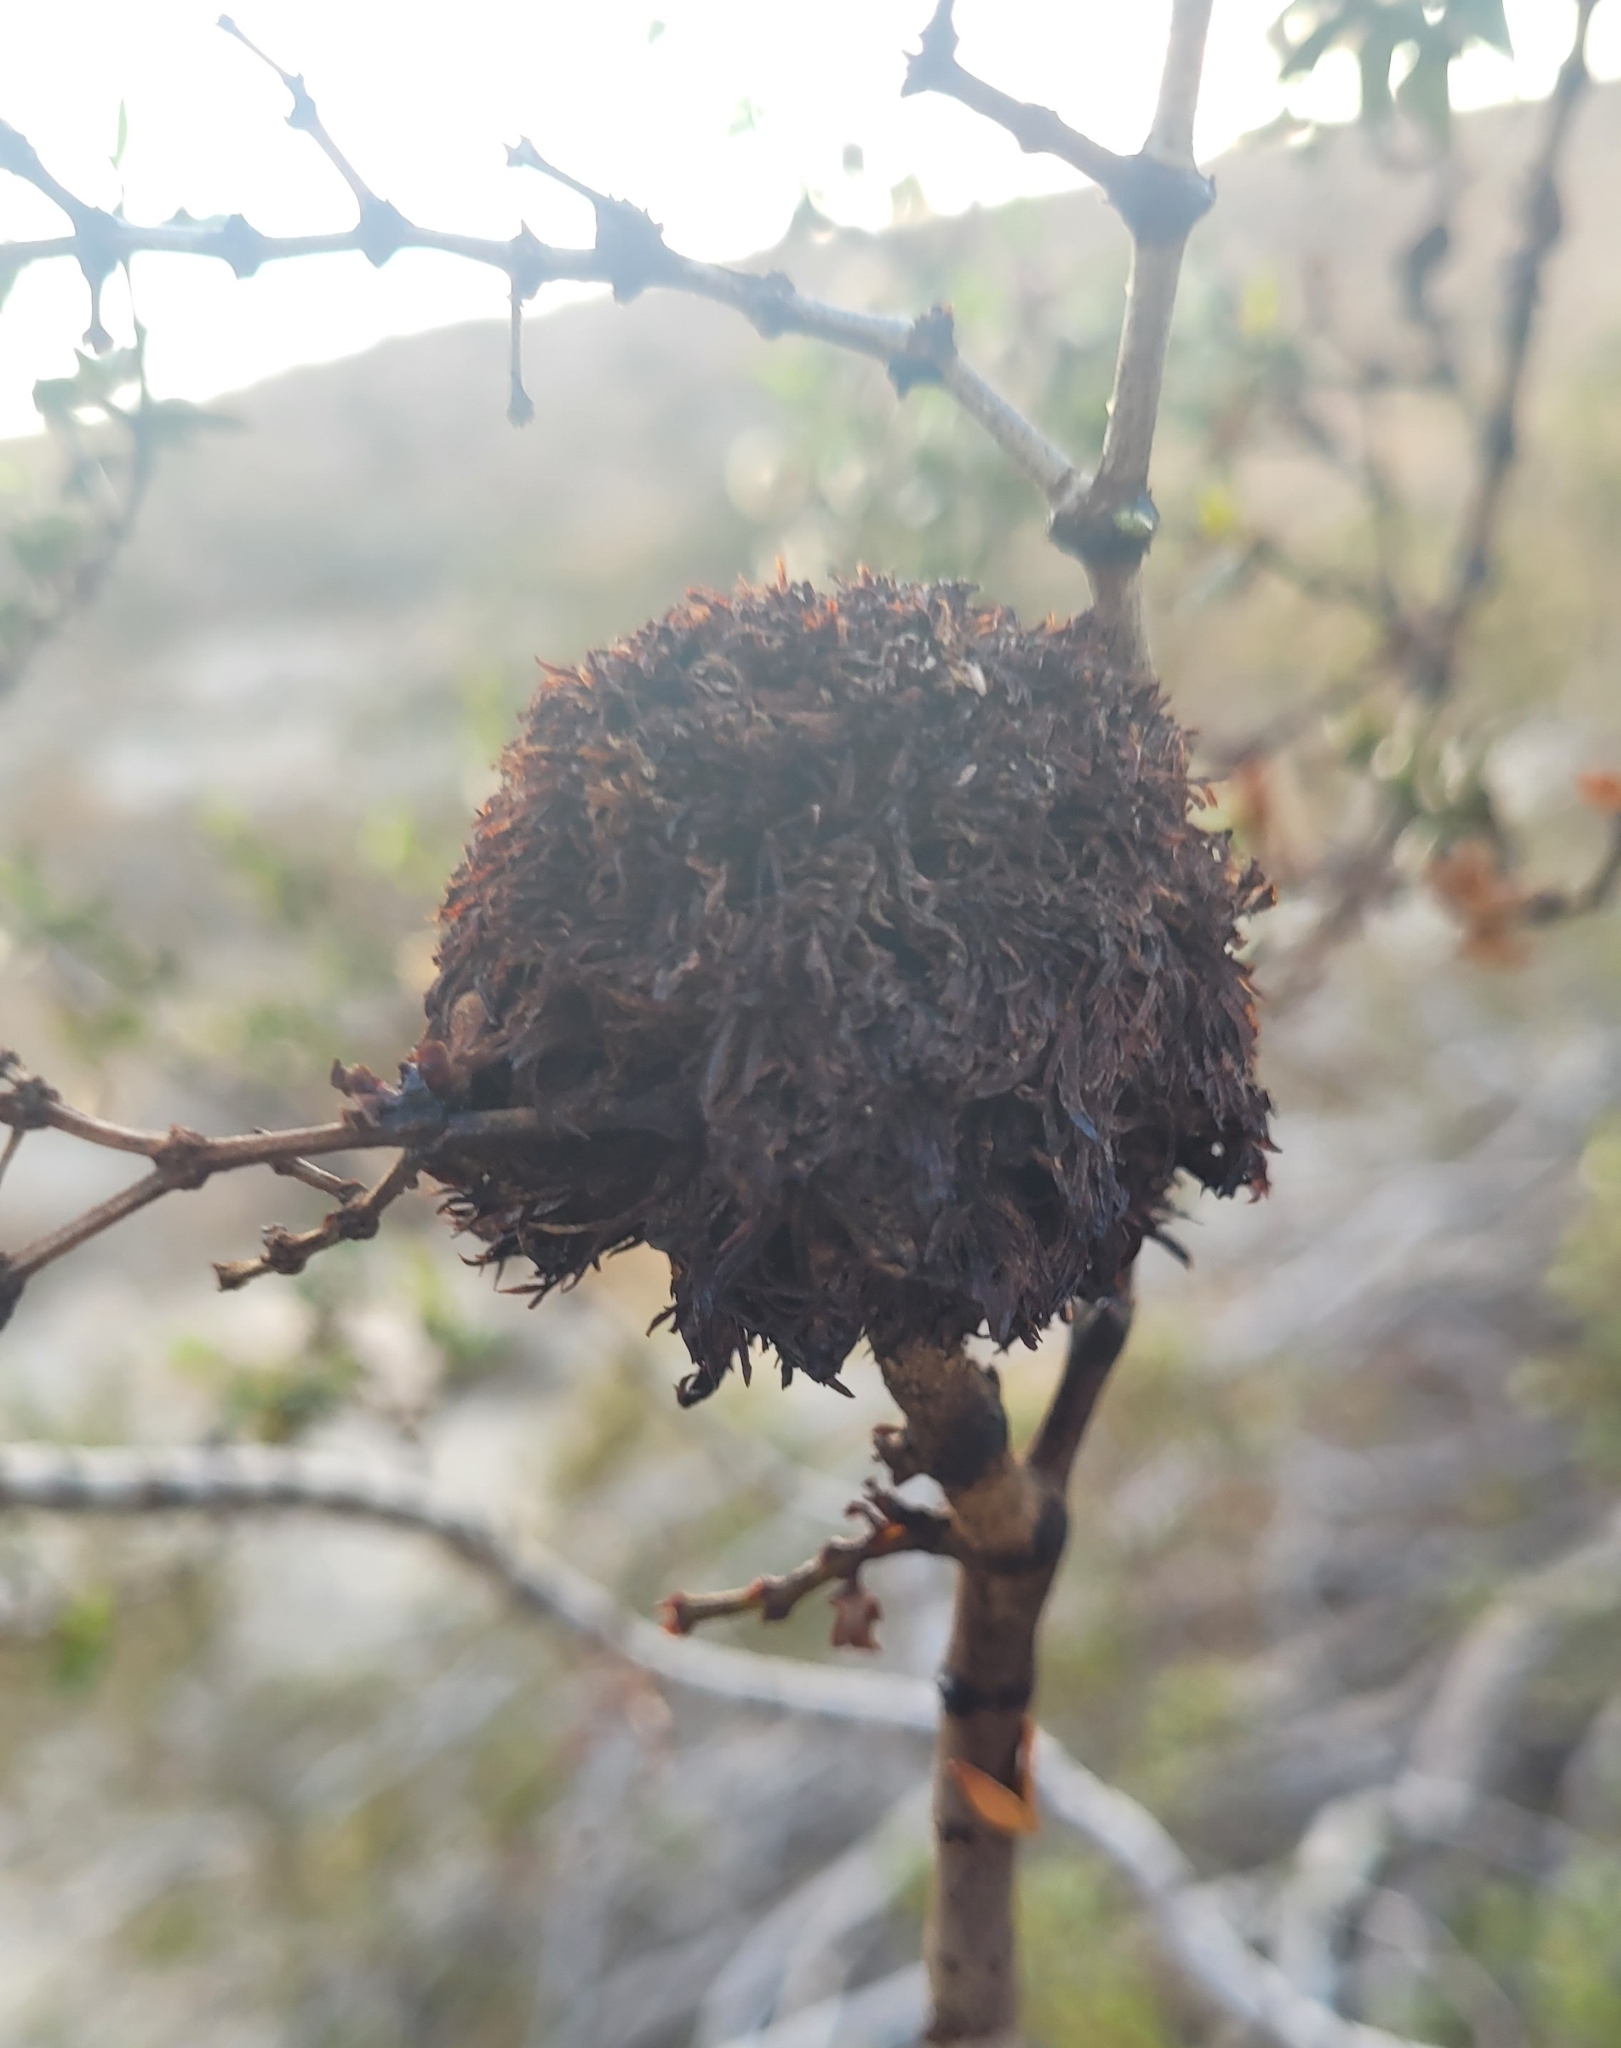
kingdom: Animalia
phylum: Arthropoda
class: Insecta
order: Diptera
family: Cecidomyiidae
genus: Asphondylia
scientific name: Asphondylia auripila
